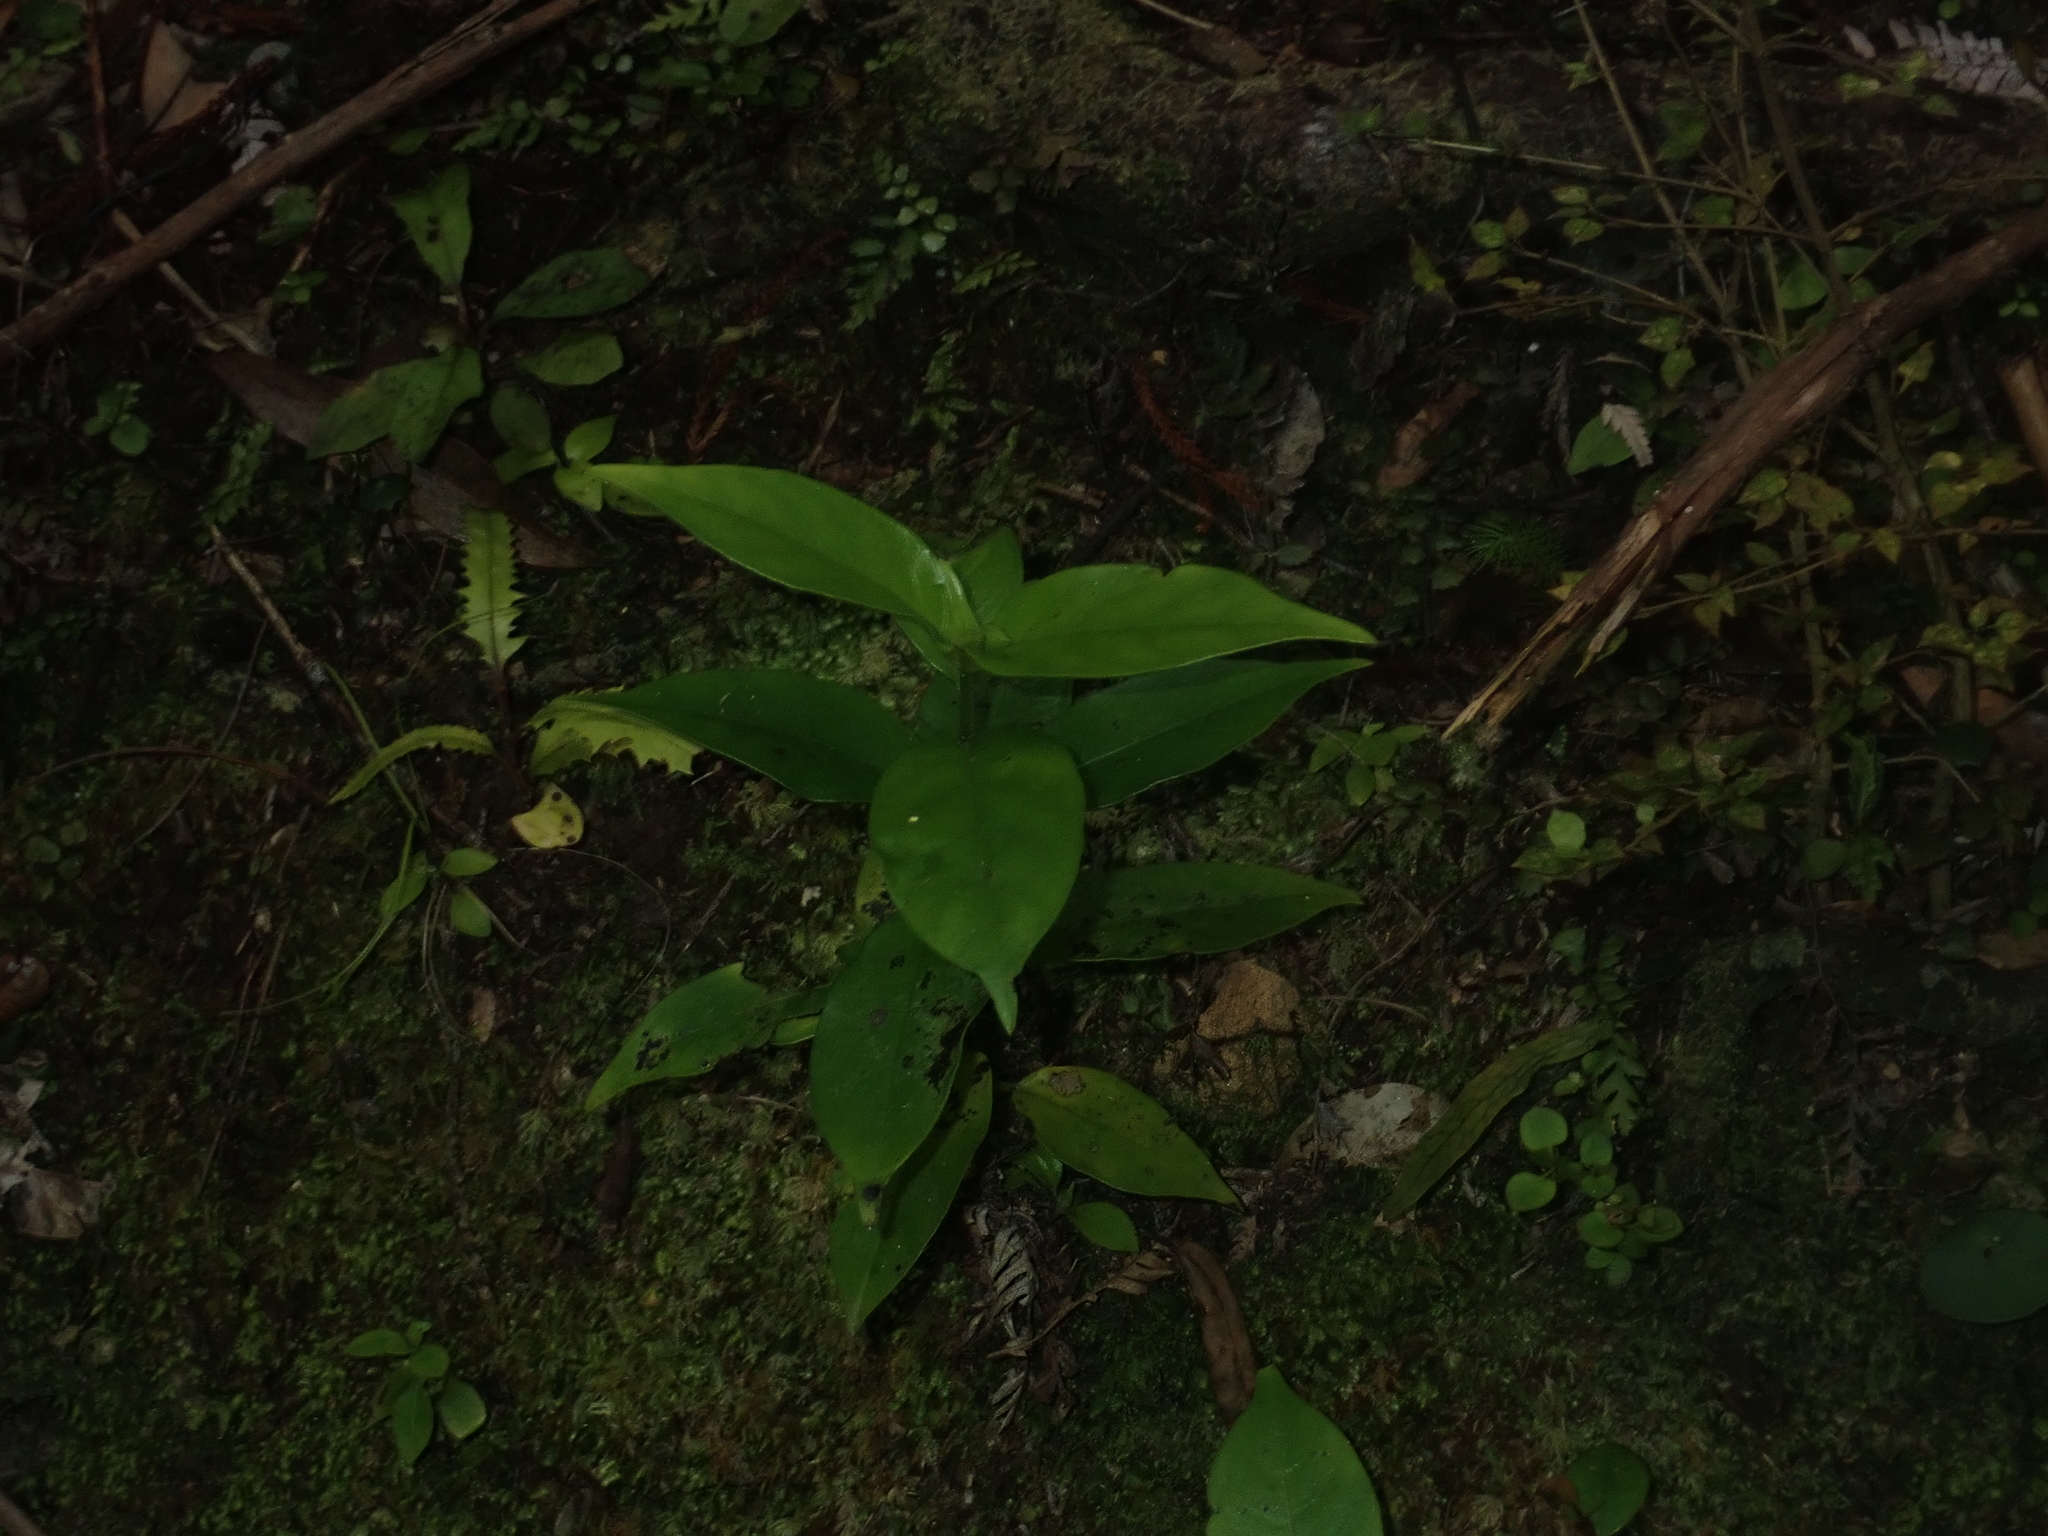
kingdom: Plantae
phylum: Tracheophyta
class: Magnoliopsida
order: Gentianales
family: Loganiaceae
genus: Geniostoma
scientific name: Geniostoma ligustrifolium
